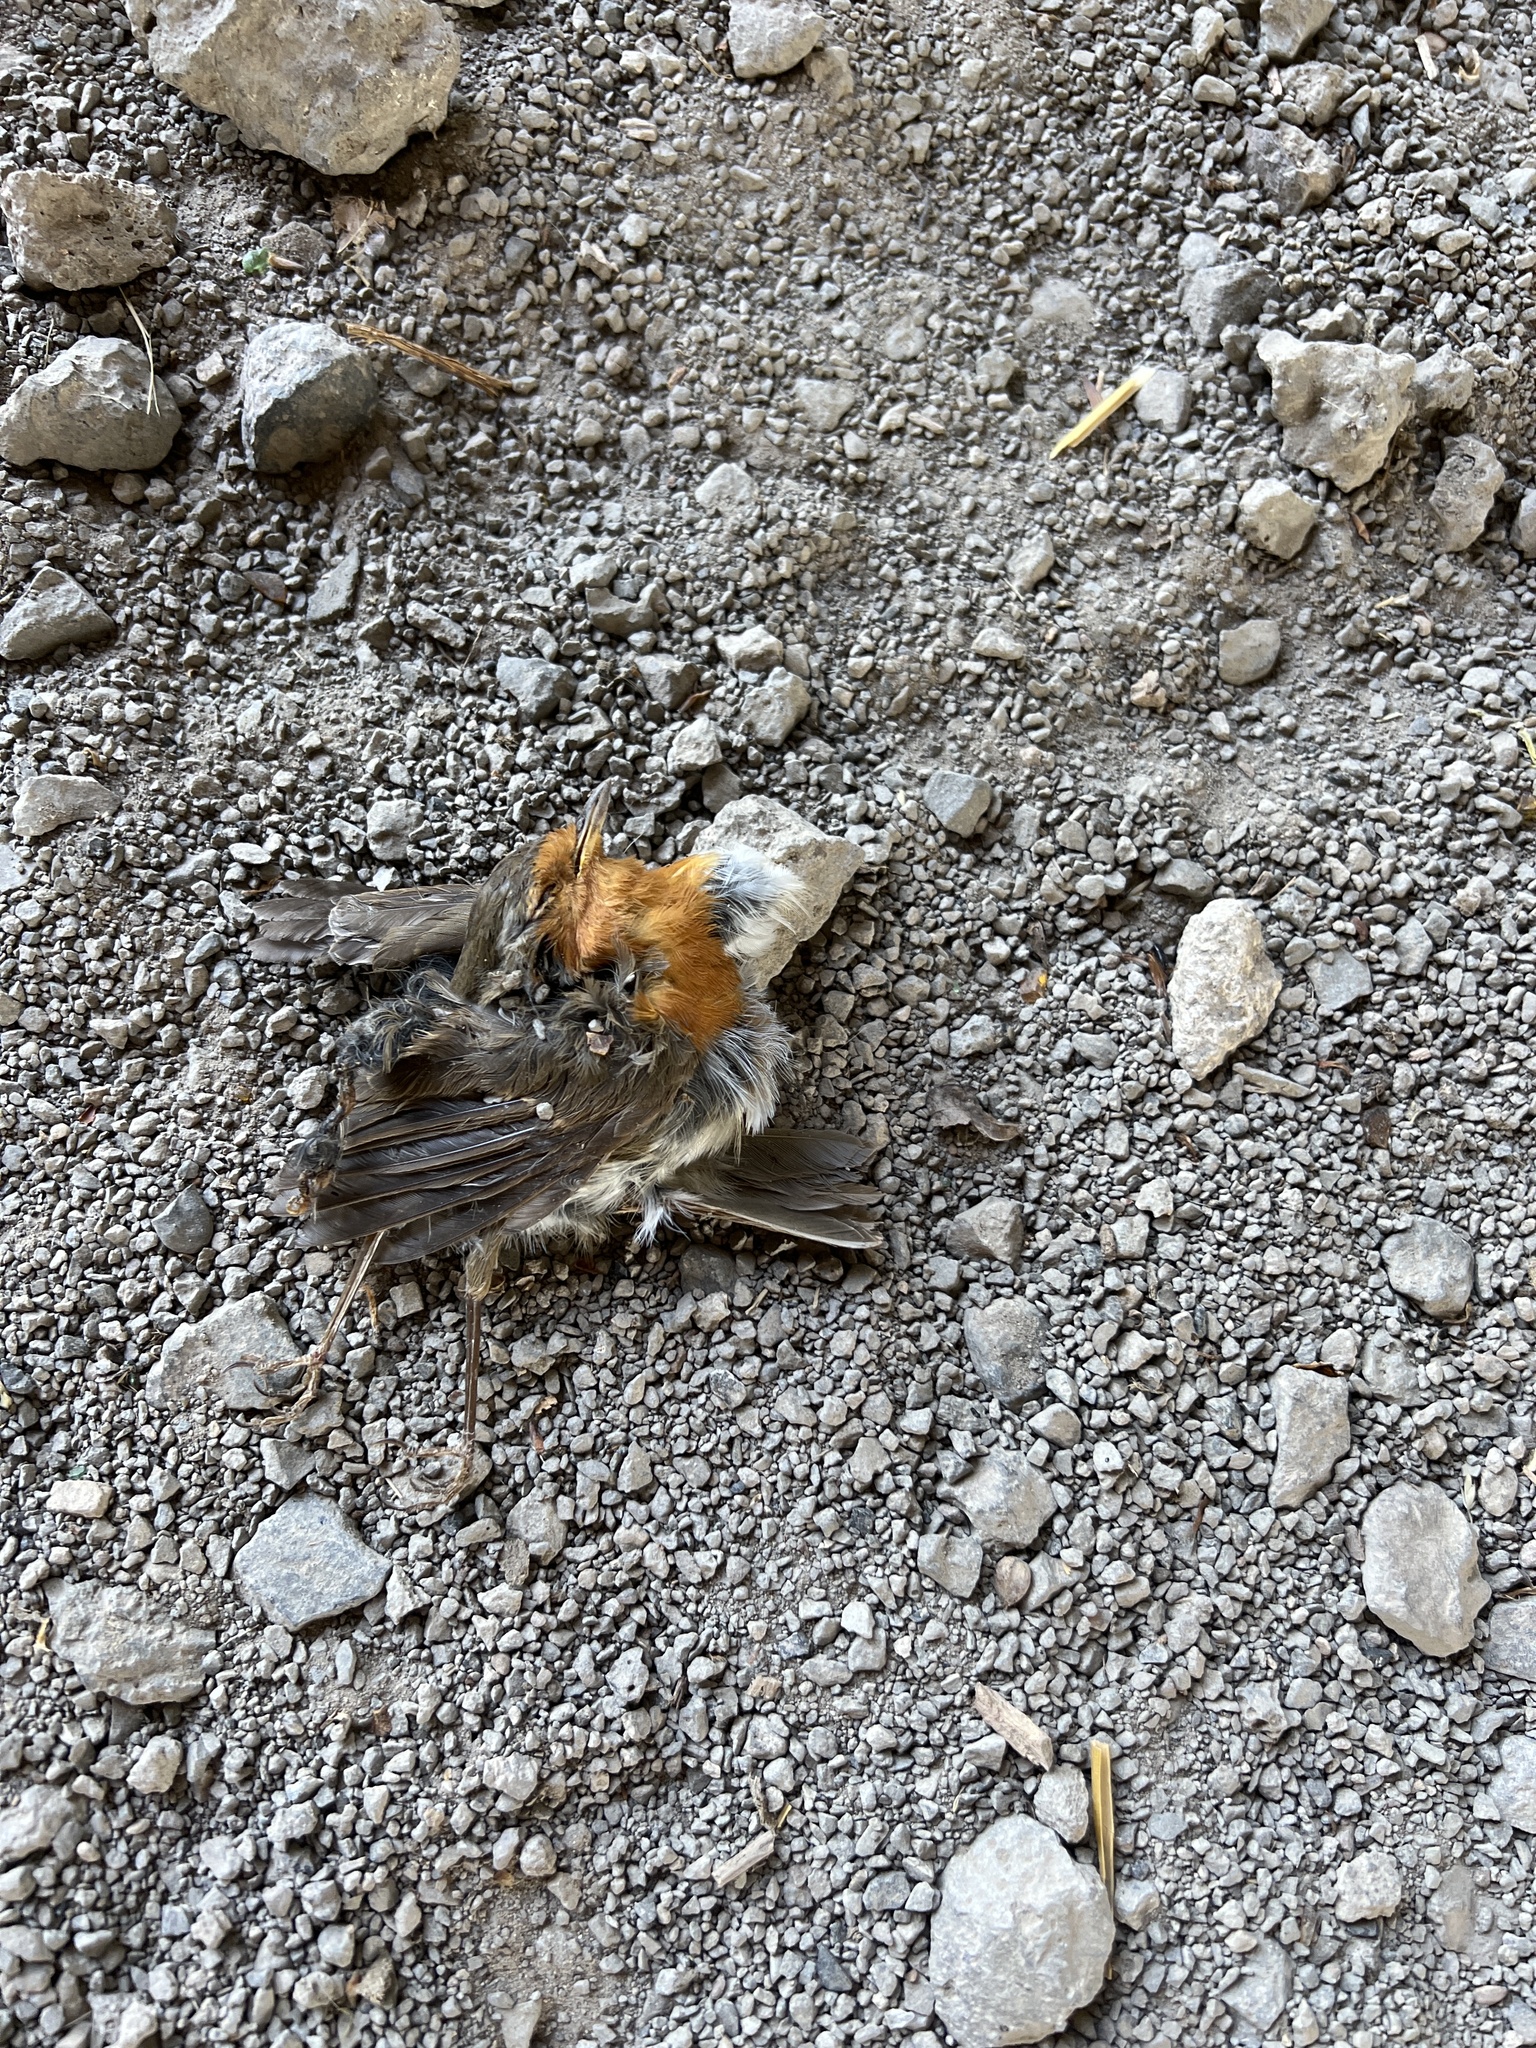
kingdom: Animalia
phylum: Chordata
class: Aves
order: Passeriformes
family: Muscicapidae
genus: Erithacus
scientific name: Erithacus rubecula
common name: European robin
